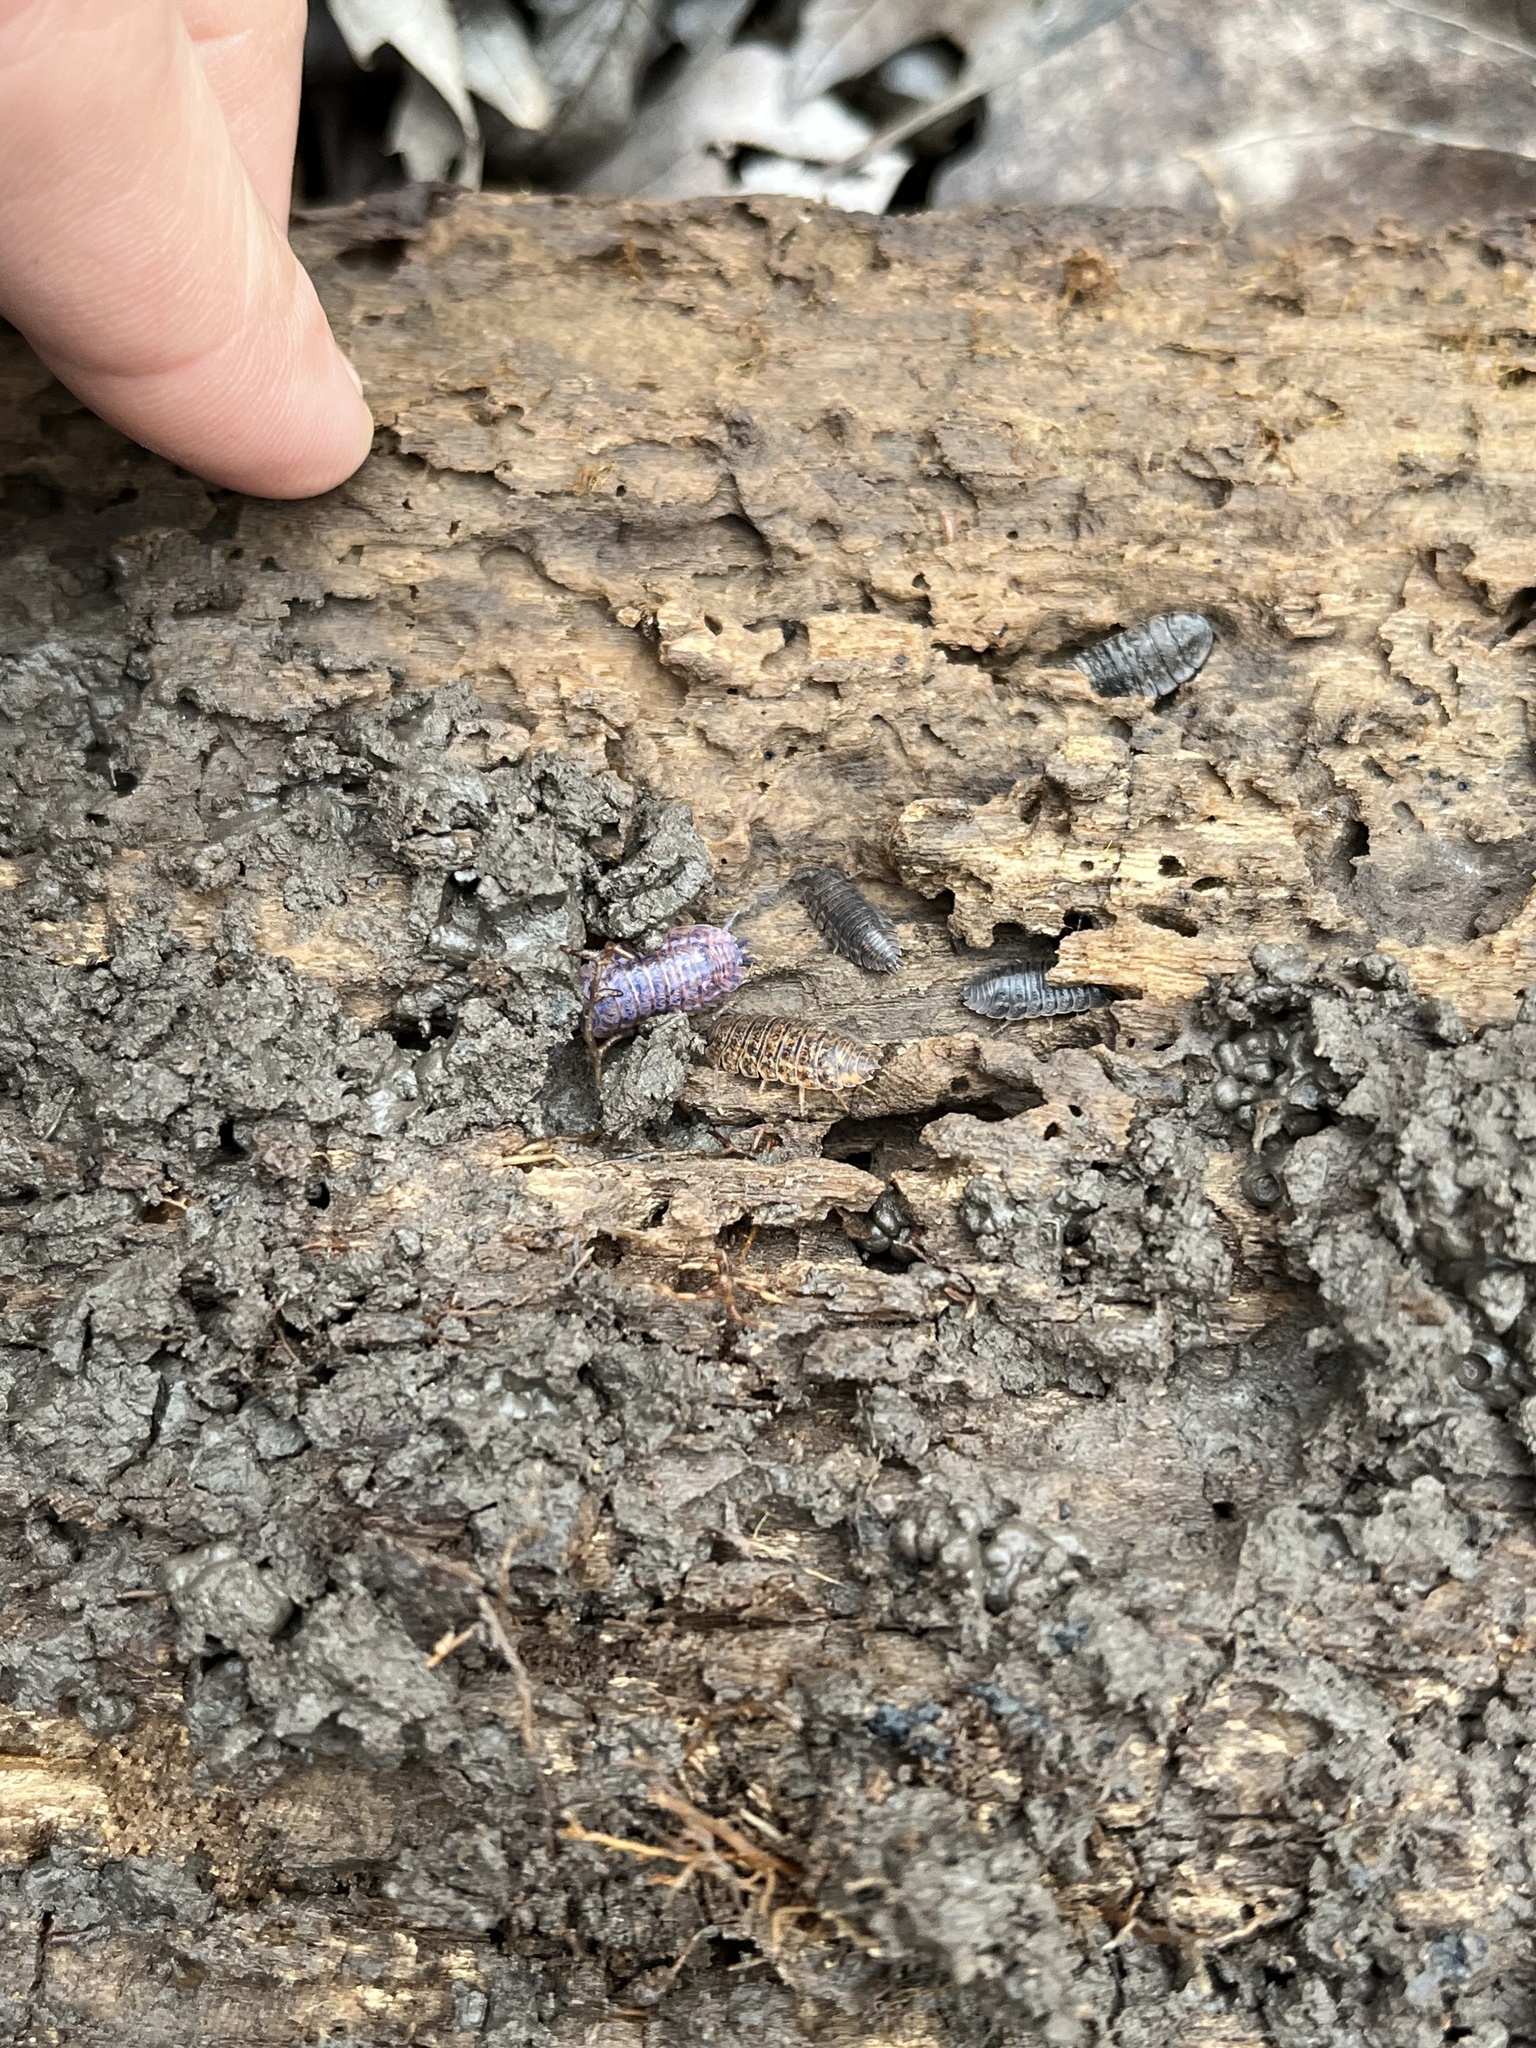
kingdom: Animalia
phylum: Arthropoda
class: Malacostraca
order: Isopoda
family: Trachelipodidae
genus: Trachelipus
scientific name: Trachelipus rathkii
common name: Isopod
